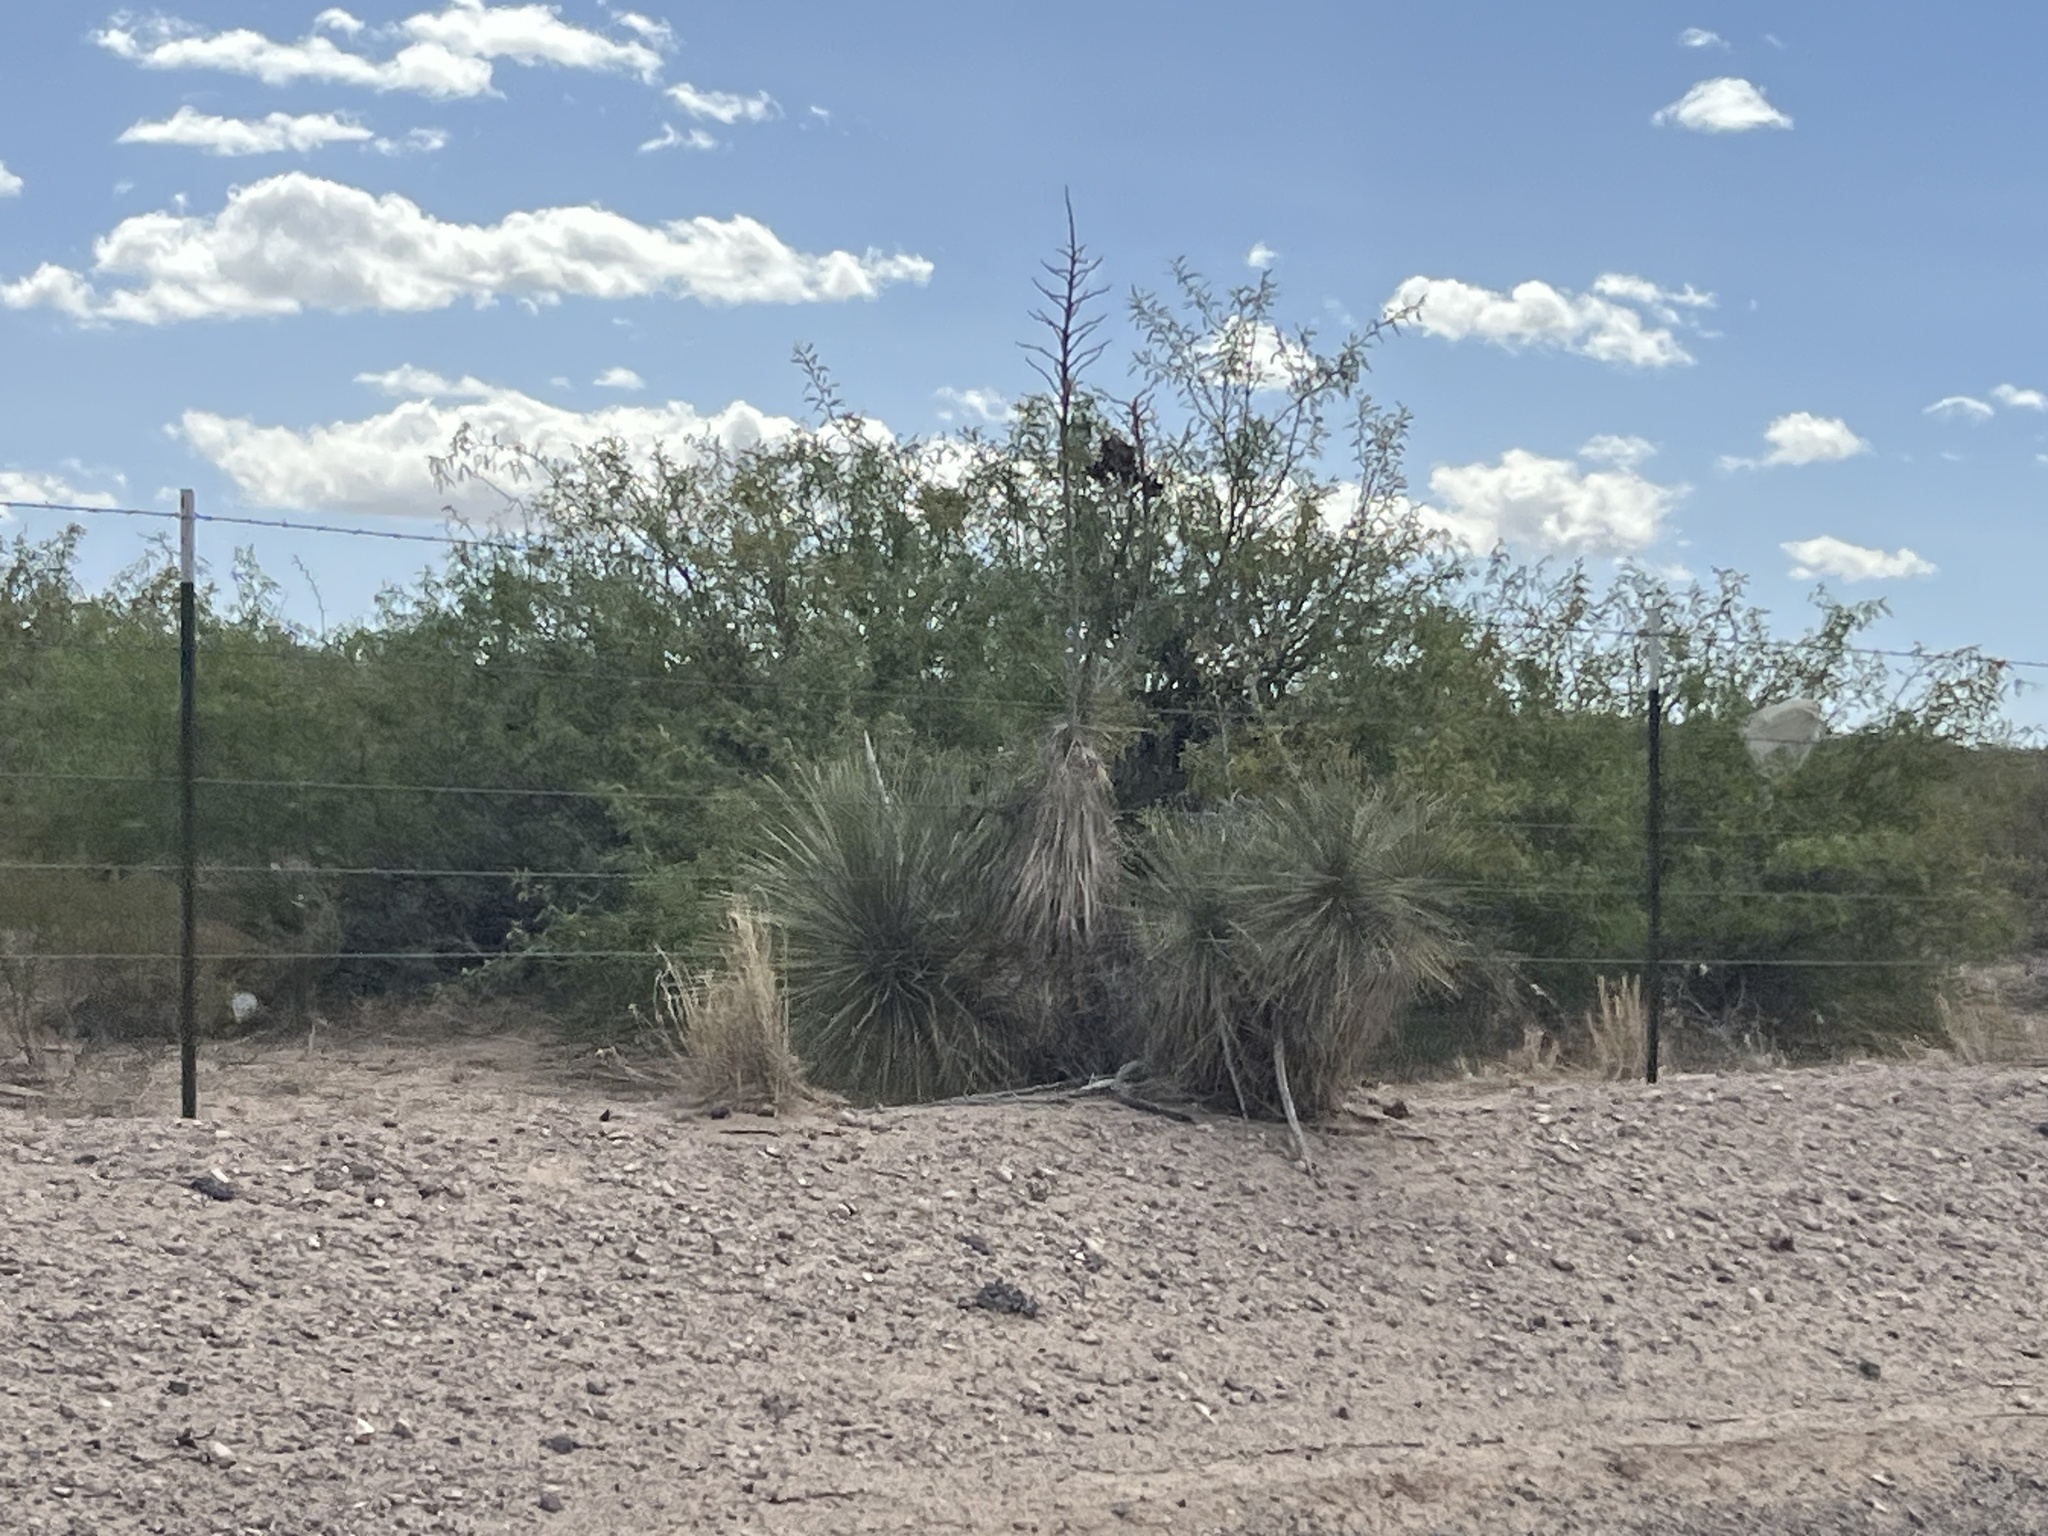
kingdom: Plantae
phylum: Tracheophyta
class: Liliopsida
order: Asparagales
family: Asparagaceae
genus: Yucca
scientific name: Yucca elata
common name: Palmella
